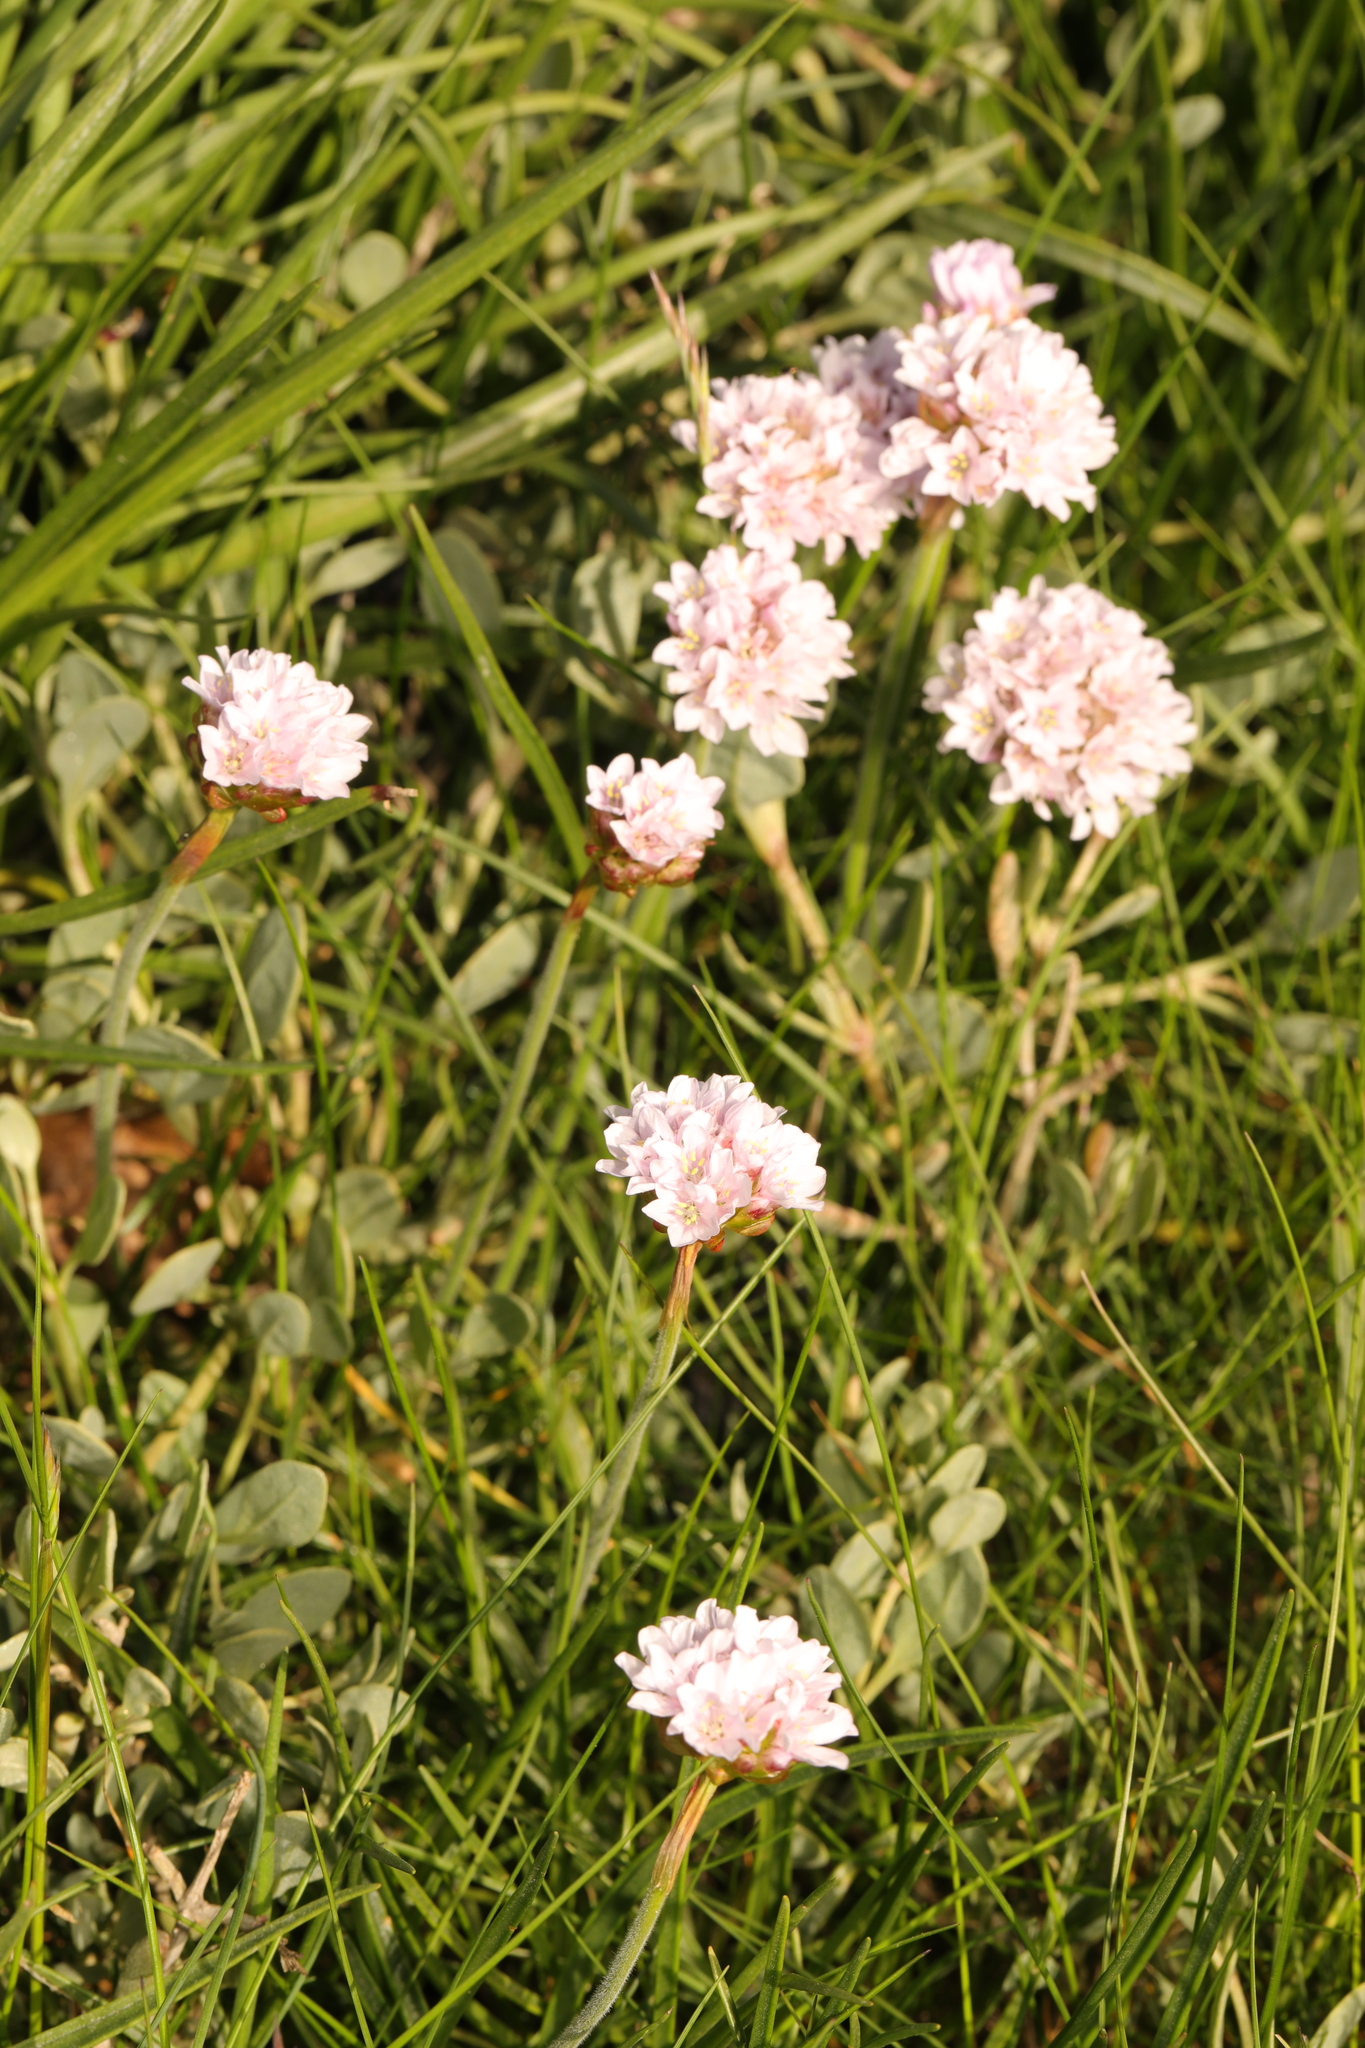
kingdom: Plantae
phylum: Tracheophyta
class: Magnoliopsida
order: Caryophyllales
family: Plumbaginaceae
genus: Armeria
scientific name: Armeria maritima
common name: Thrift
